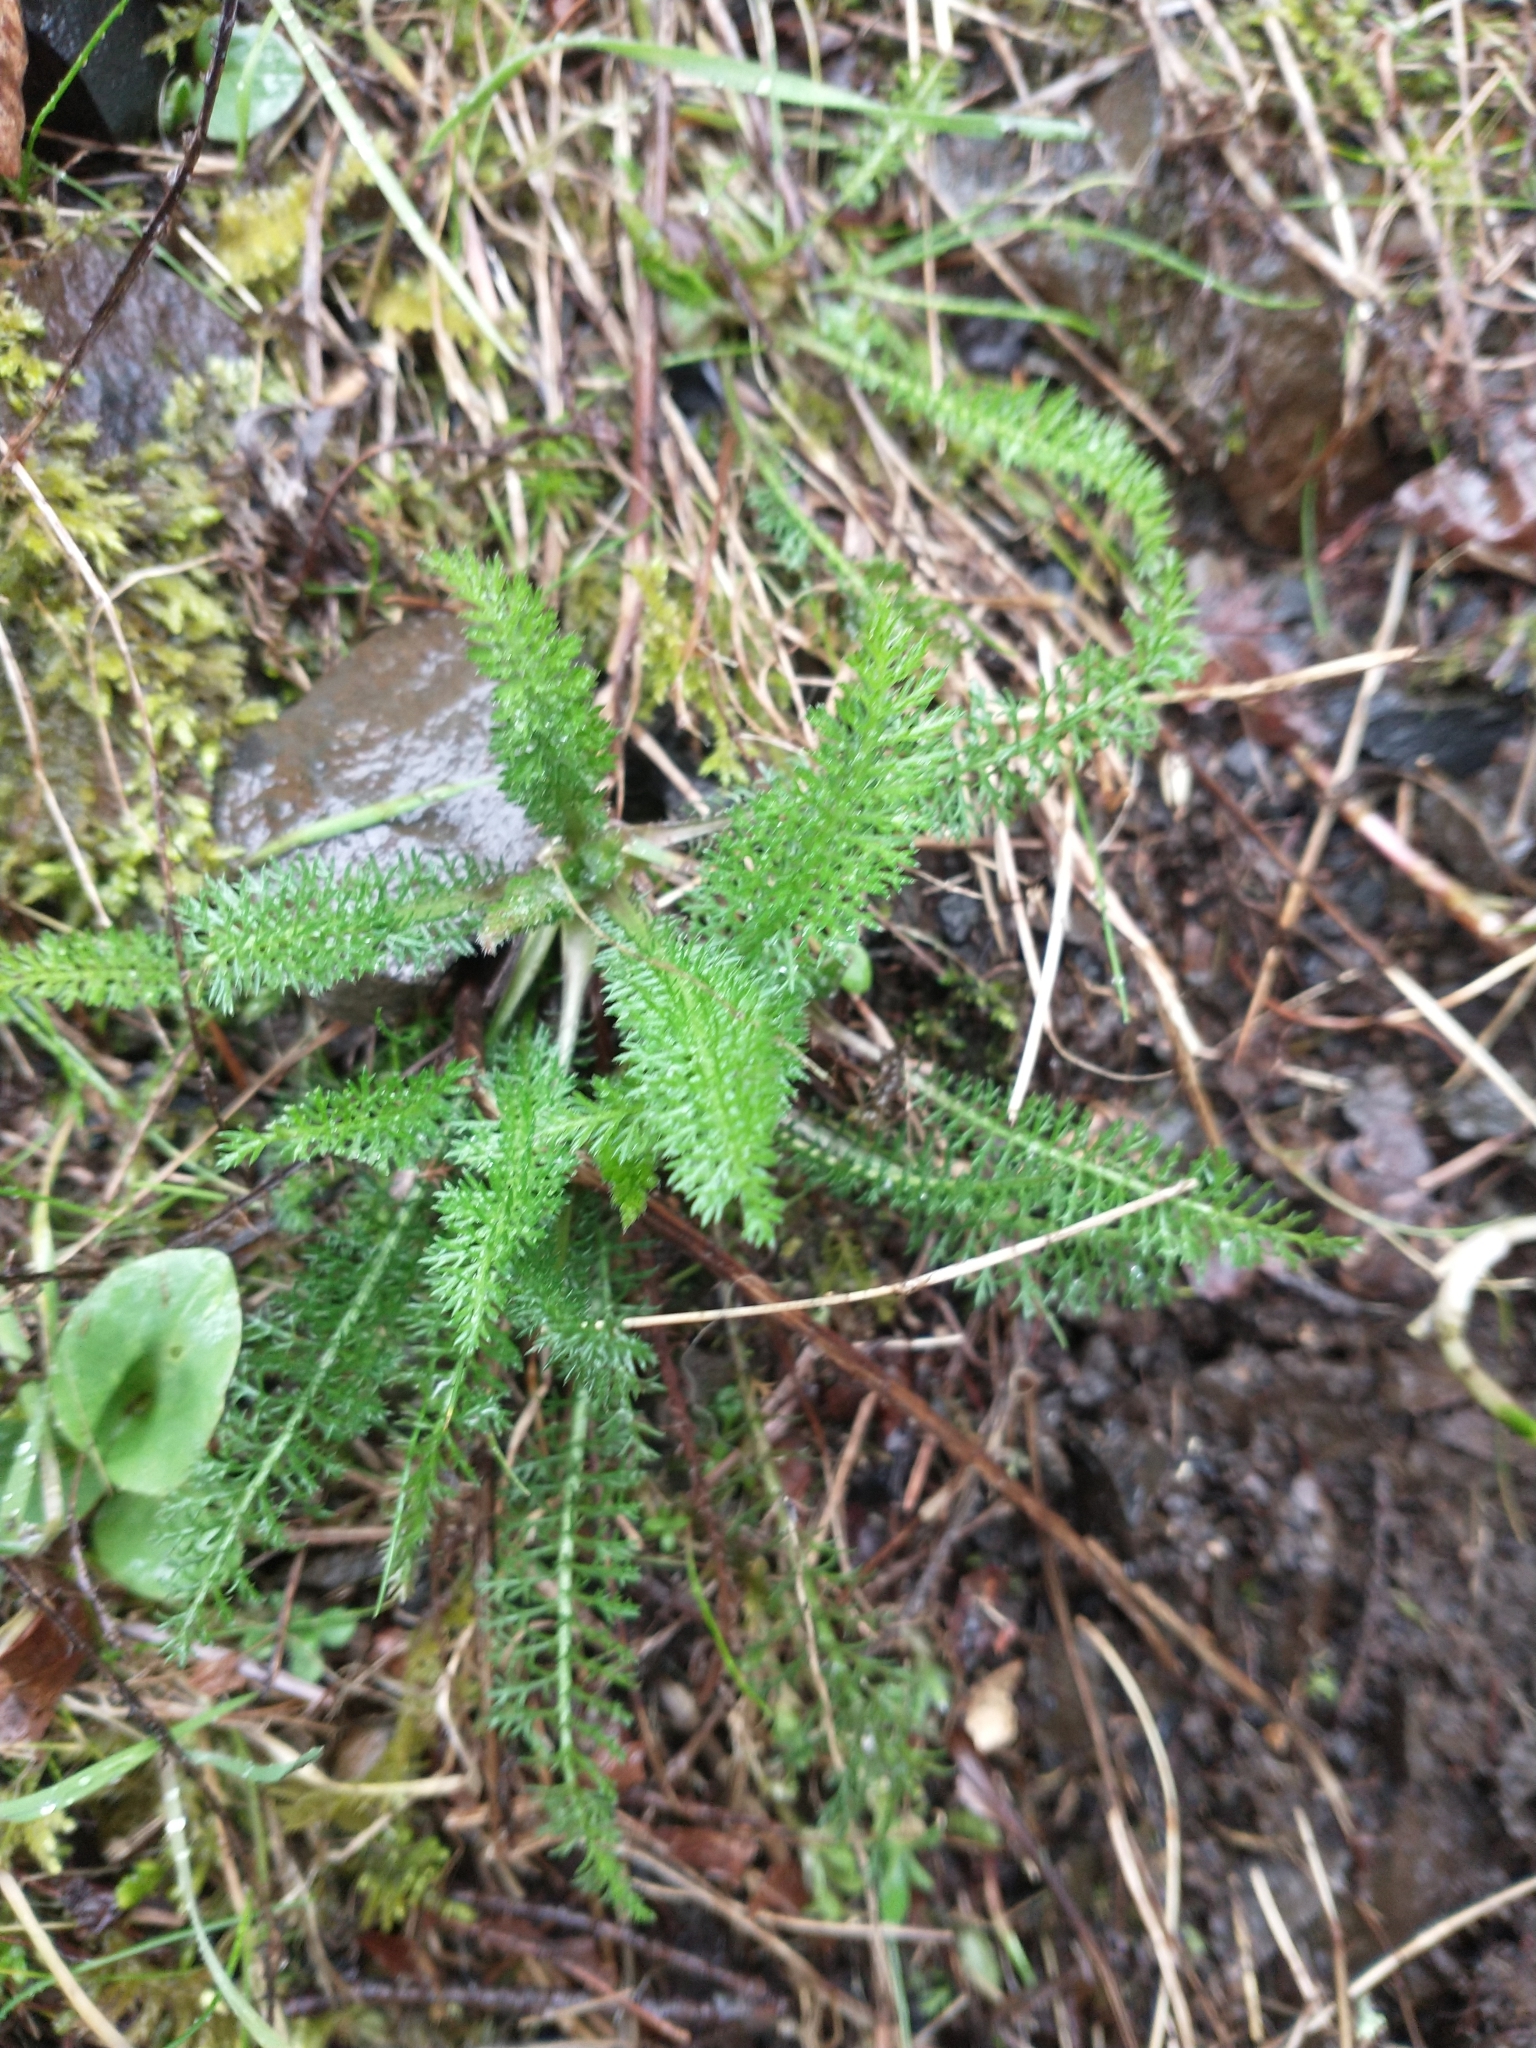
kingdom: Plantae
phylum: Tracheophyta
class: Magnoliopsida
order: Asterales
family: Asteraceae
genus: Achillea
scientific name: Achillea millefolium
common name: Yarrow
